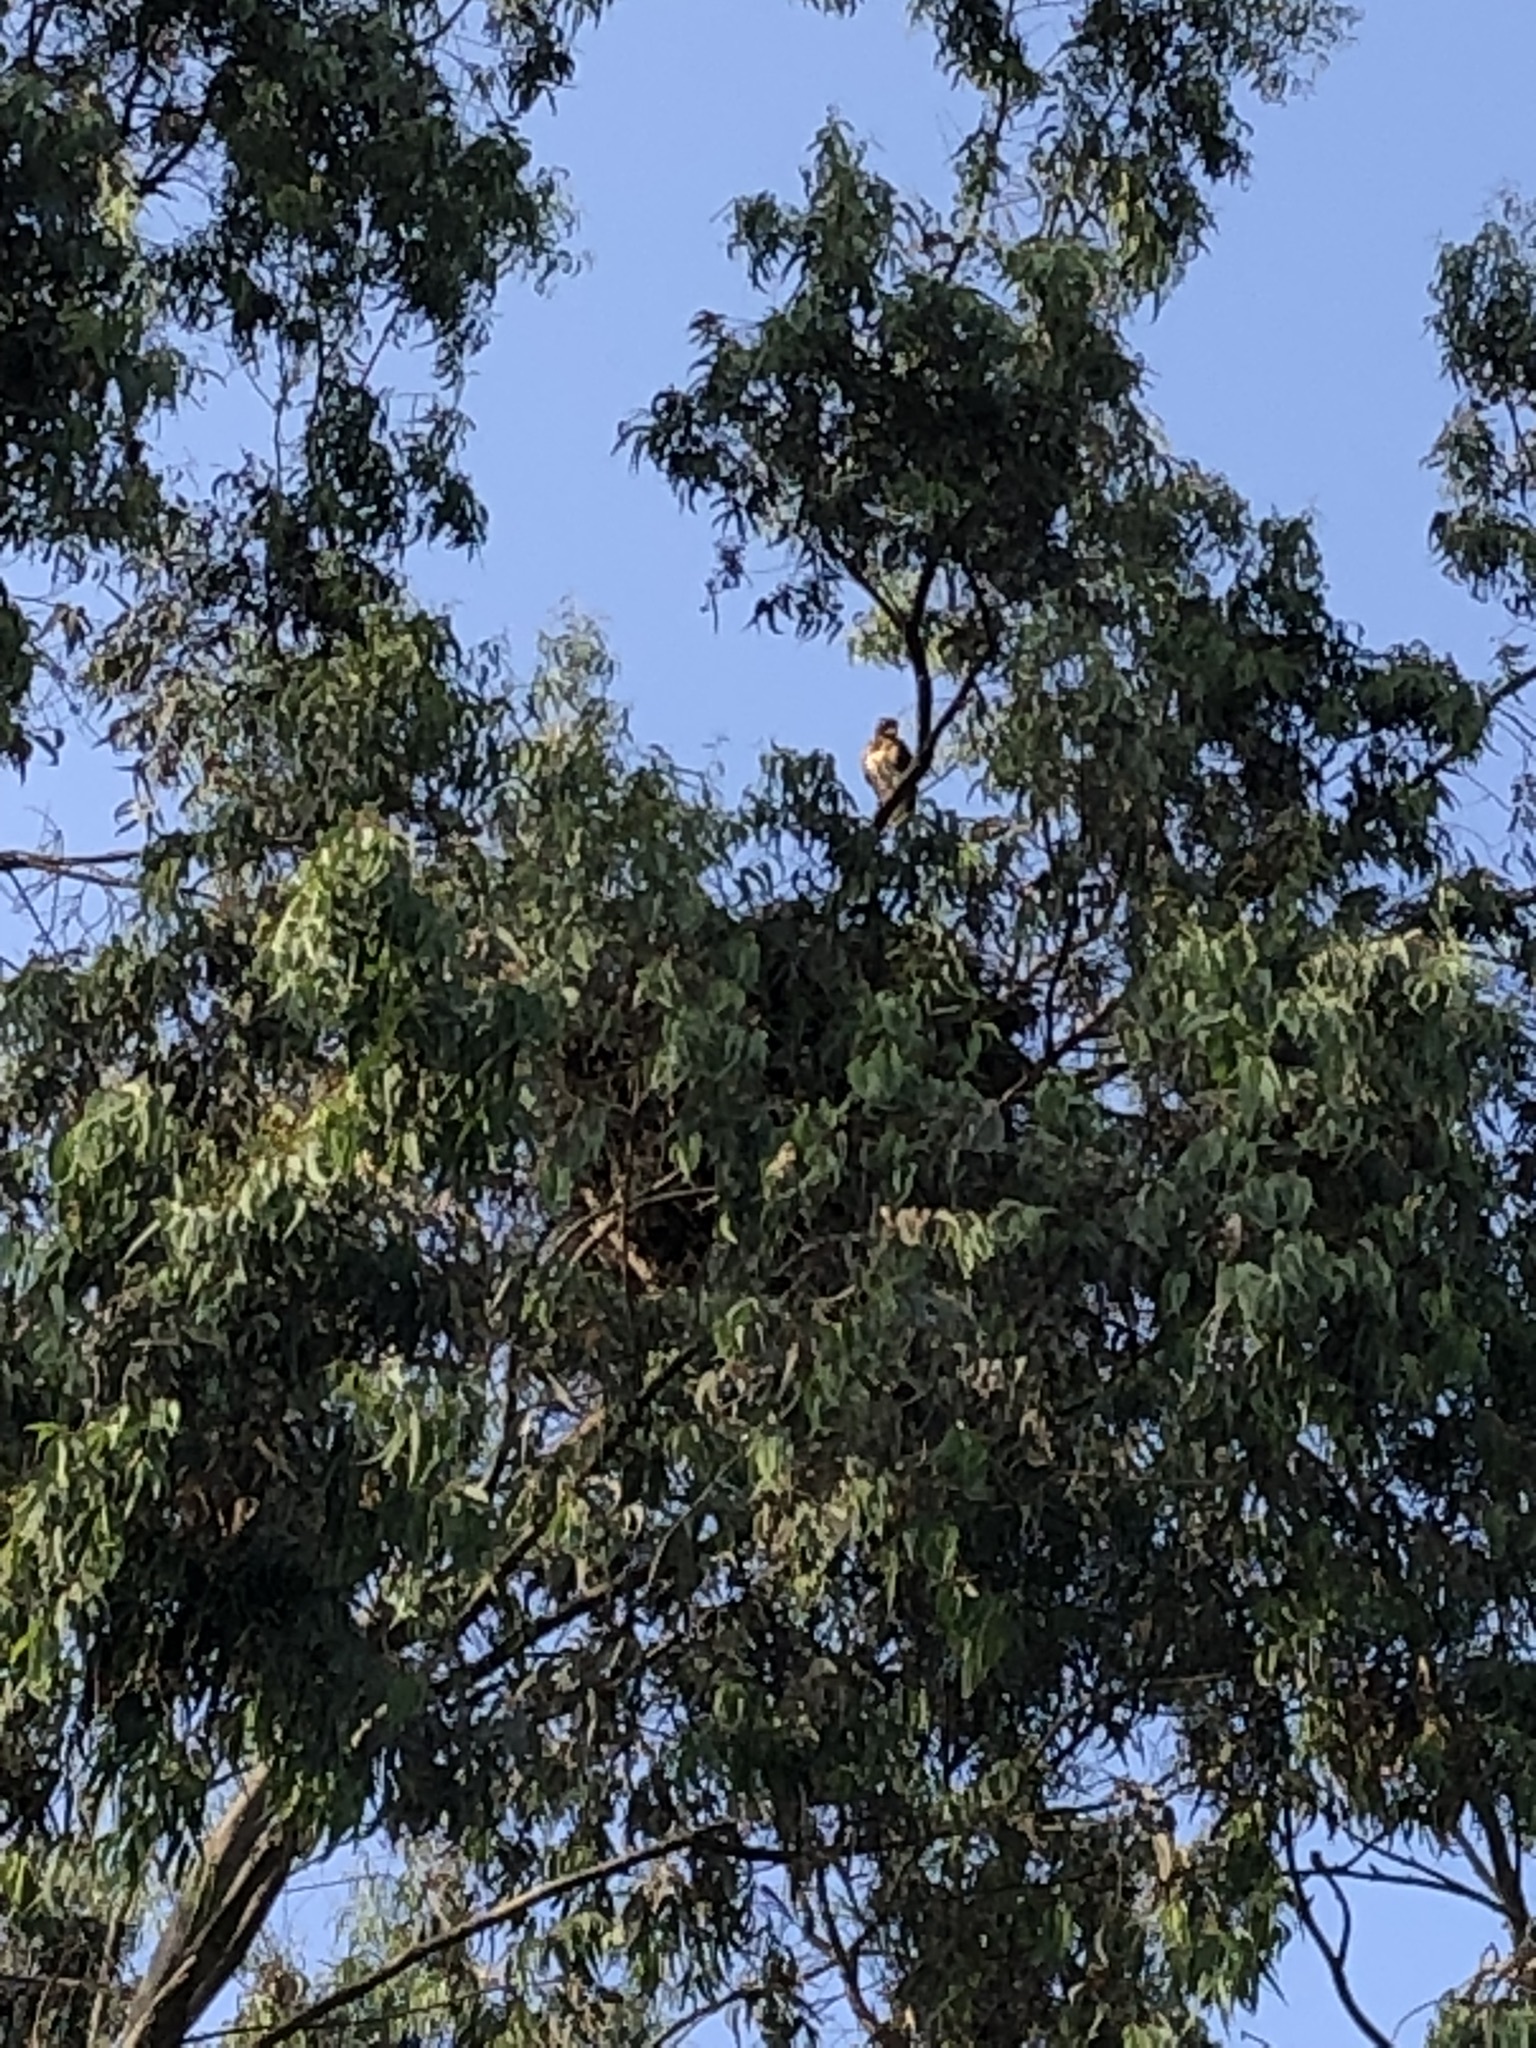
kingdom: Animalia
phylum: Chordata
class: Aves
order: Accipitriformes
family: Accipitridae
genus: Parabuteo
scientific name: Parabuteo unicinctus
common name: Harris's hawk
